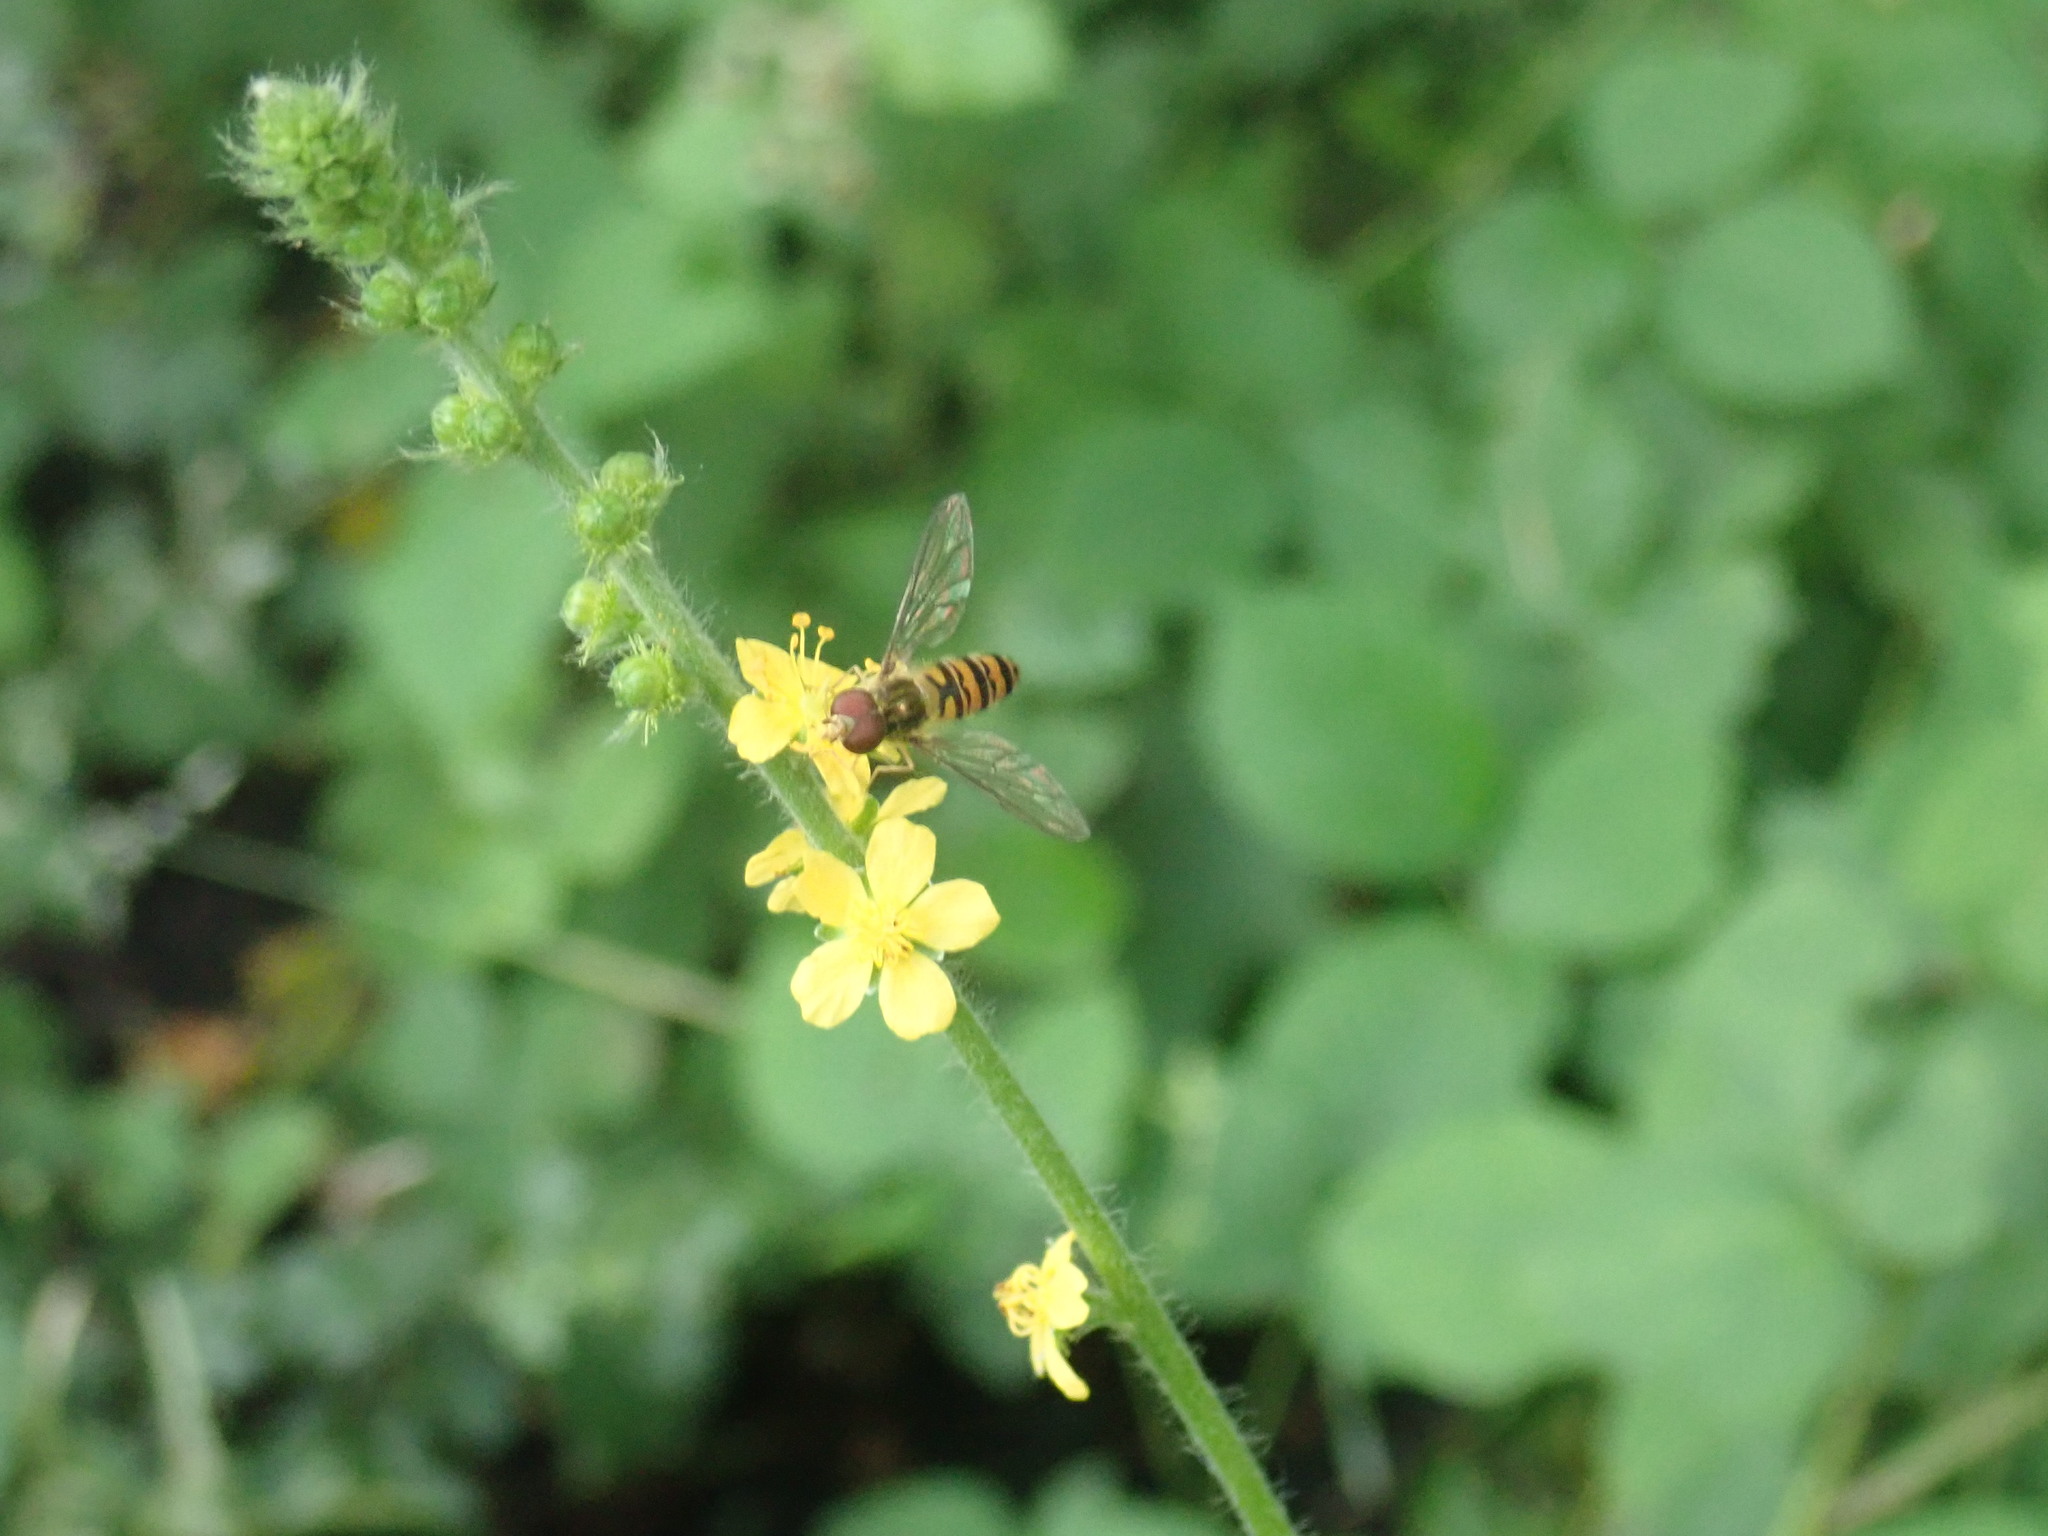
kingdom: Animalia
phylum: Arthropoda
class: Insecta
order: Diptera
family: Syrphidae
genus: Episyrphus
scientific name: Episyrphus balteatus
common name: Marmalade hoverfly
